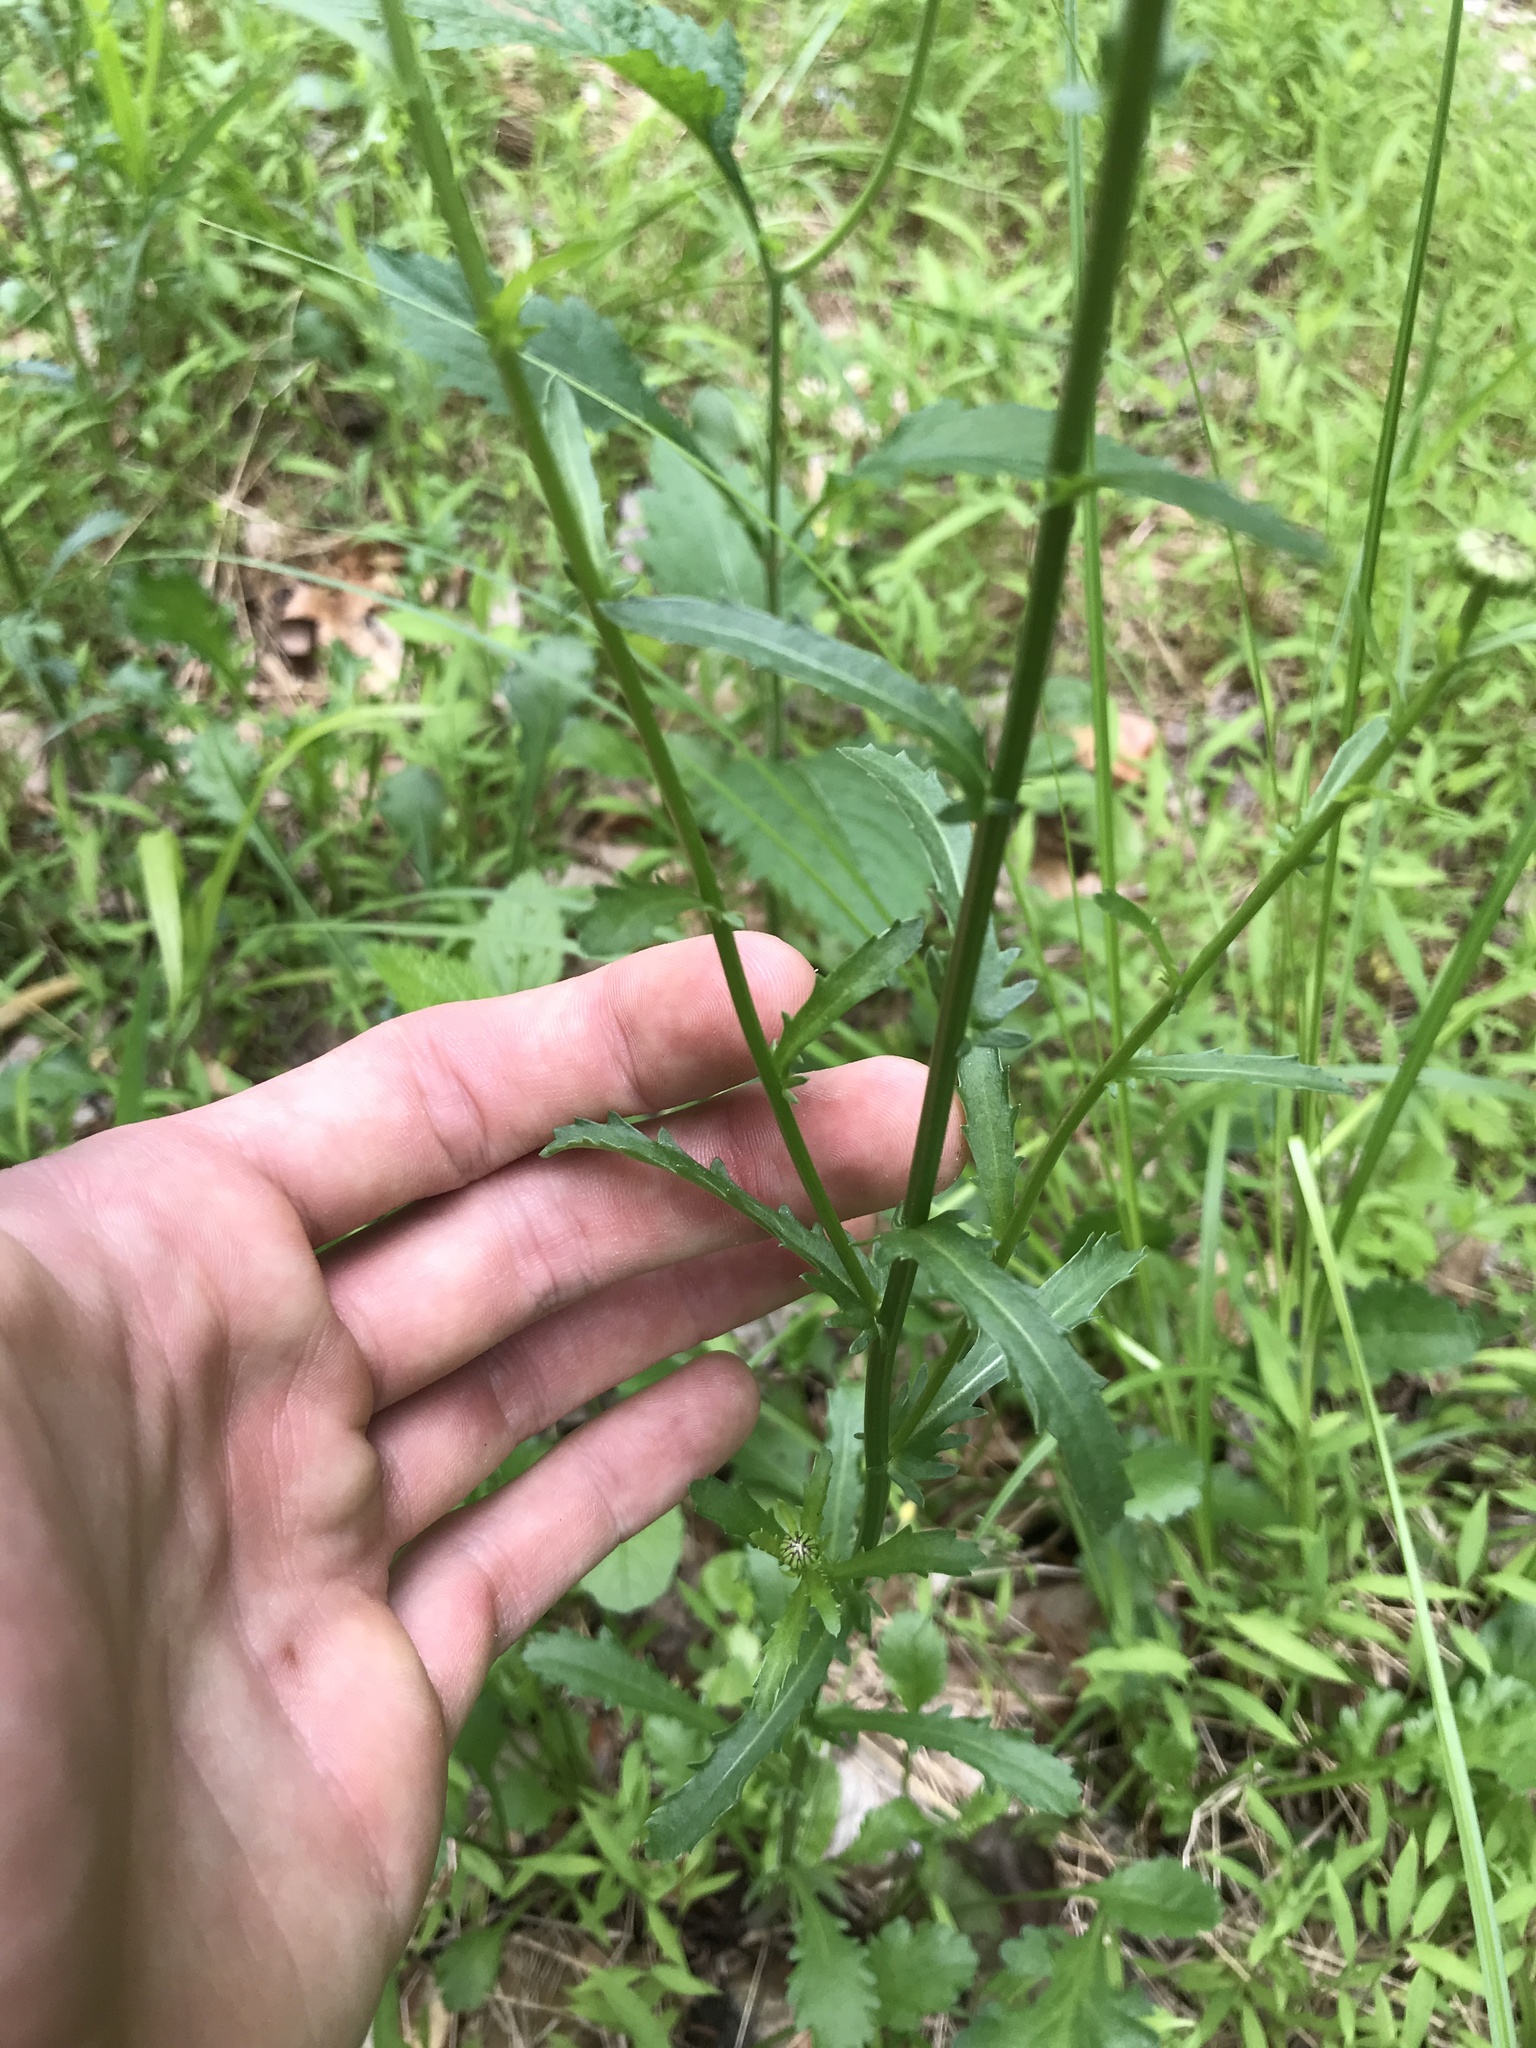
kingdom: Plantae
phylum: Tracheophyta
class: Magnoliopsida
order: Asterales
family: Asteraceae
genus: Leucanthemum
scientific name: Leucanthemum vulgare
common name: Oxeye daisy
